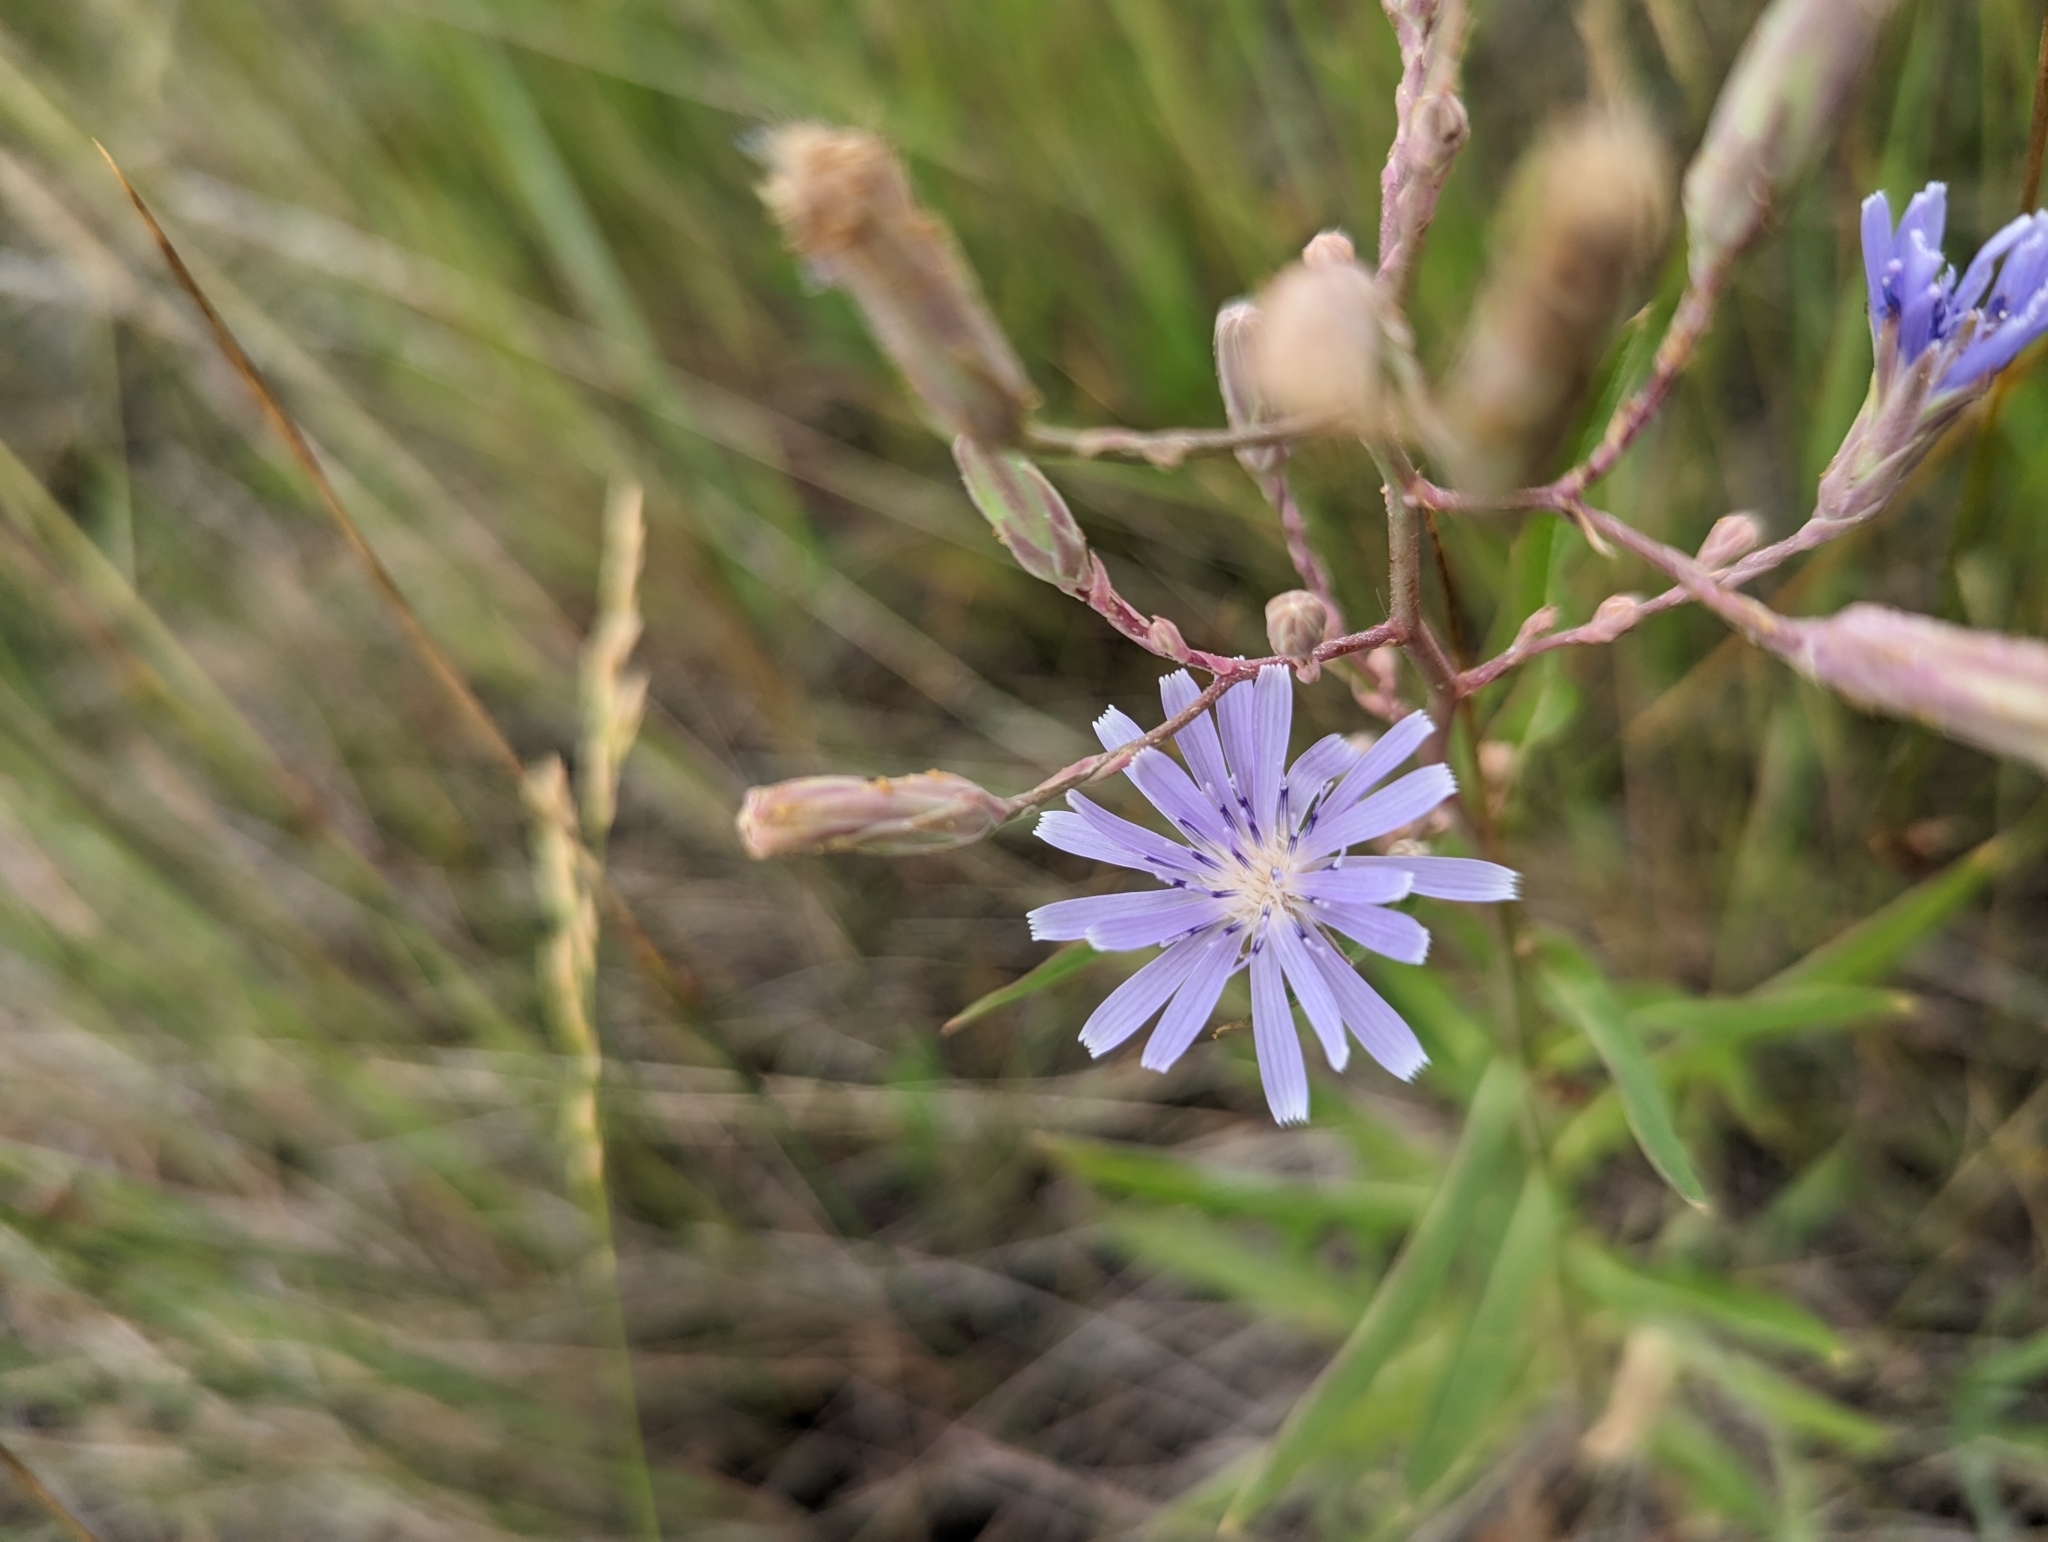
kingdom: Plantae
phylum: Tracheophyta
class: Magnoliopsida
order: Asterales
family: Asteraceae
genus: Lactuca
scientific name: Lactuca pulchella
